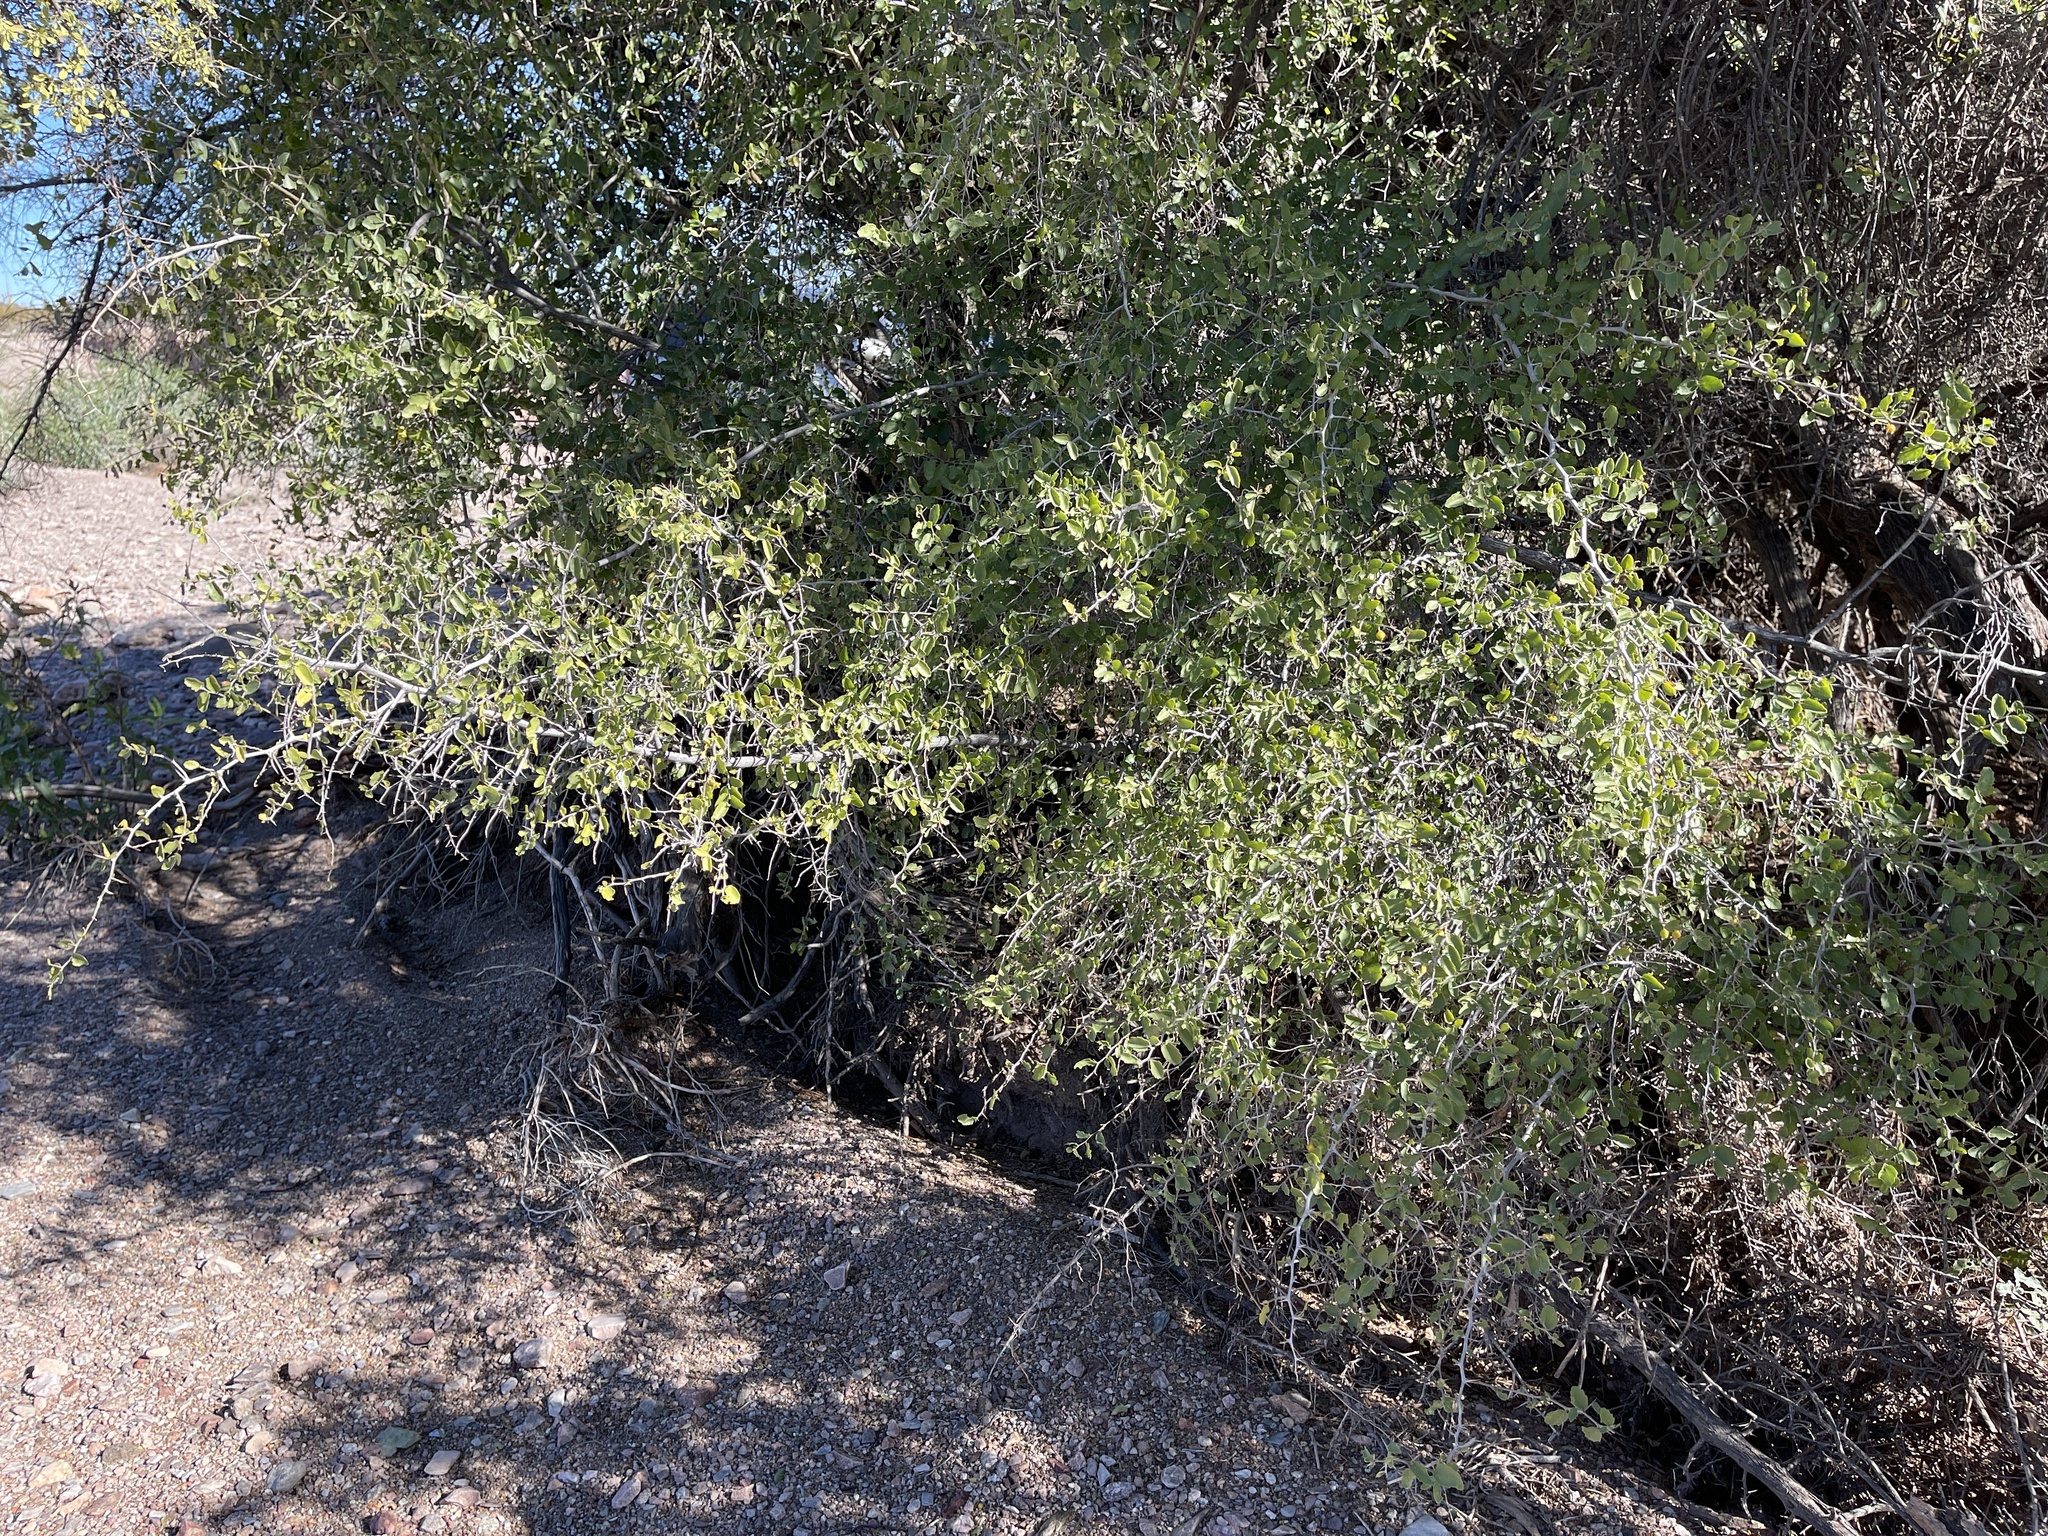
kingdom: Plantae
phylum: Tracheophyta
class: Magnoliopsida
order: Rosales
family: Cannabaceae
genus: Celtis
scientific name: Celtis pallida
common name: Desert hackberry
